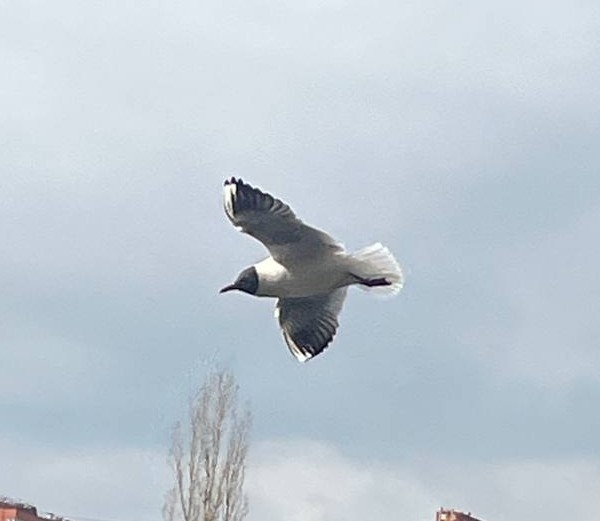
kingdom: Animalia
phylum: Chordata
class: Aves
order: Charadriiformes
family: Laridae
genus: Chroicocephalus
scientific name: Chroicocephalus ridibundus
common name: Black-headed gull
